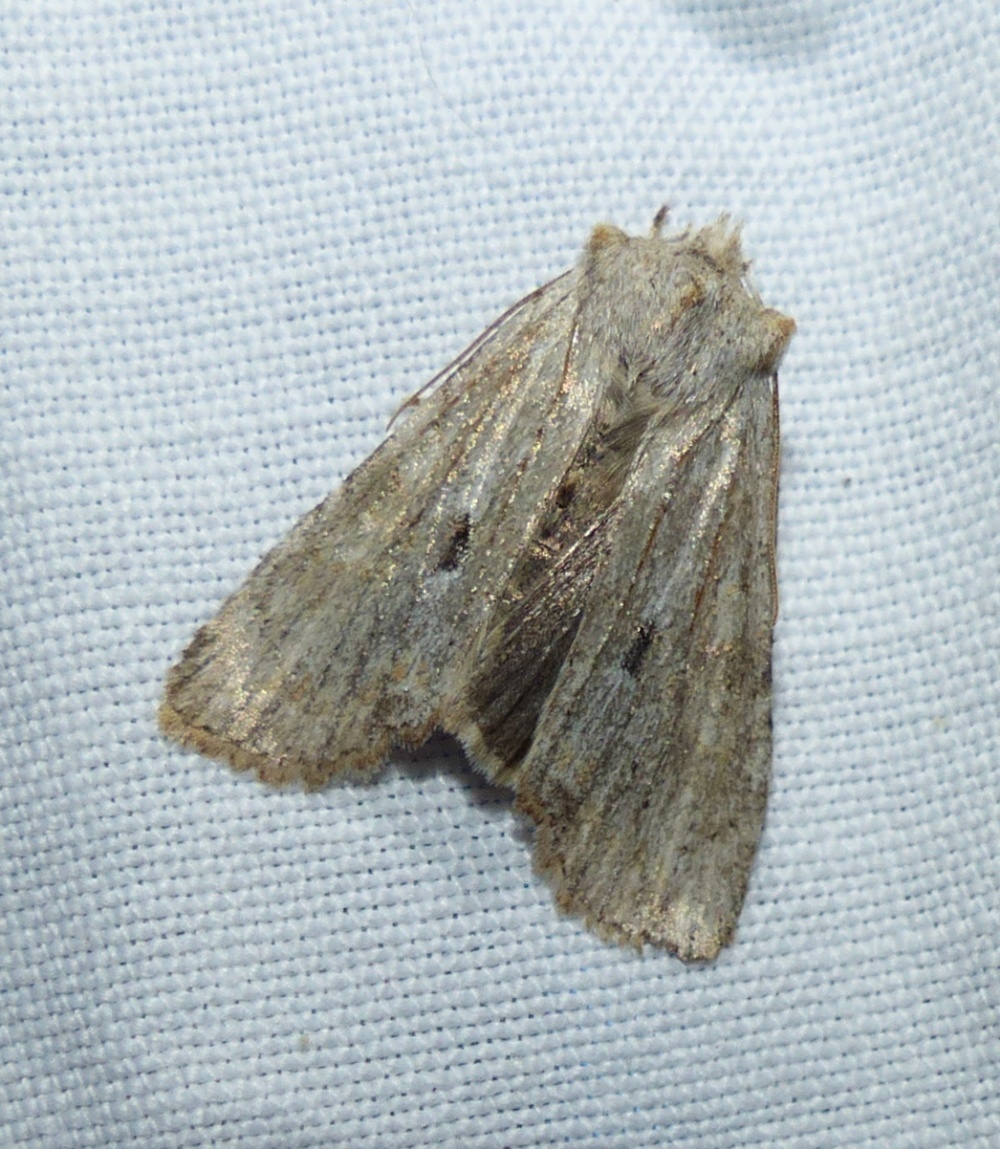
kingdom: Animalia
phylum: Arthropoda
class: Insecta
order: Lepidoptera
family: Noctuidae
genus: Lithophane
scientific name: Lithophane patefacta
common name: Dimorphic pinion moth
